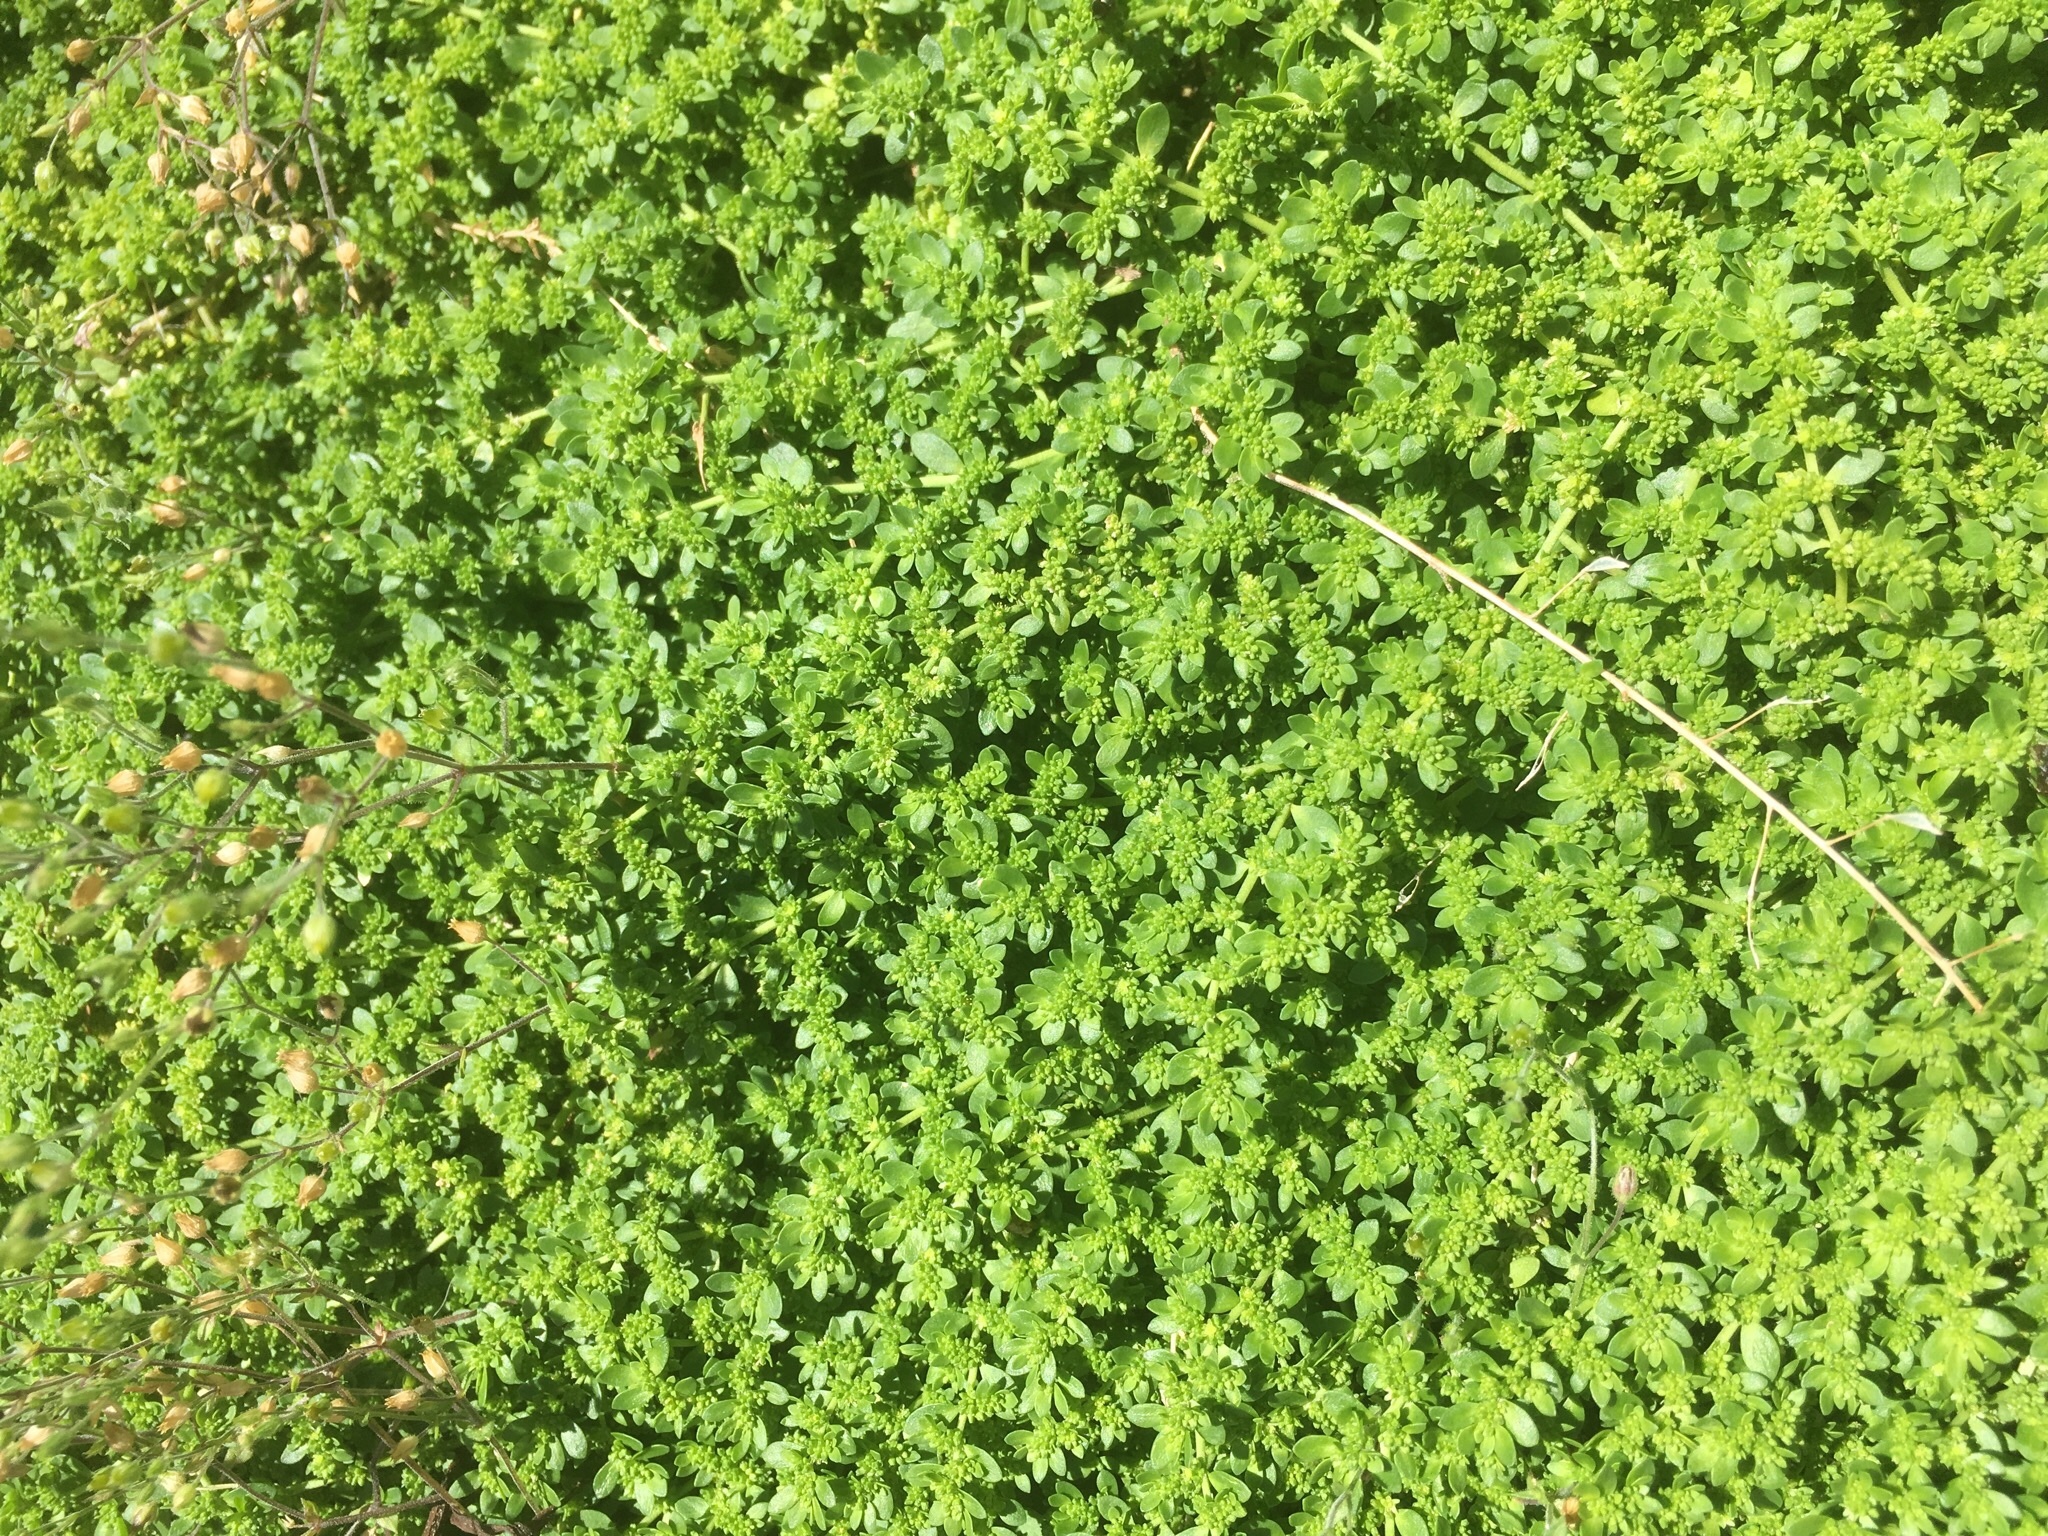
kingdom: Plantae
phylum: Tracheophyta
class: Magnoliopsida
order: Caryophyllales
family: Caryophyllaceae
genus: Herniaria
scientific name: Herniaria glabra
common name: Smooth rupturewort
